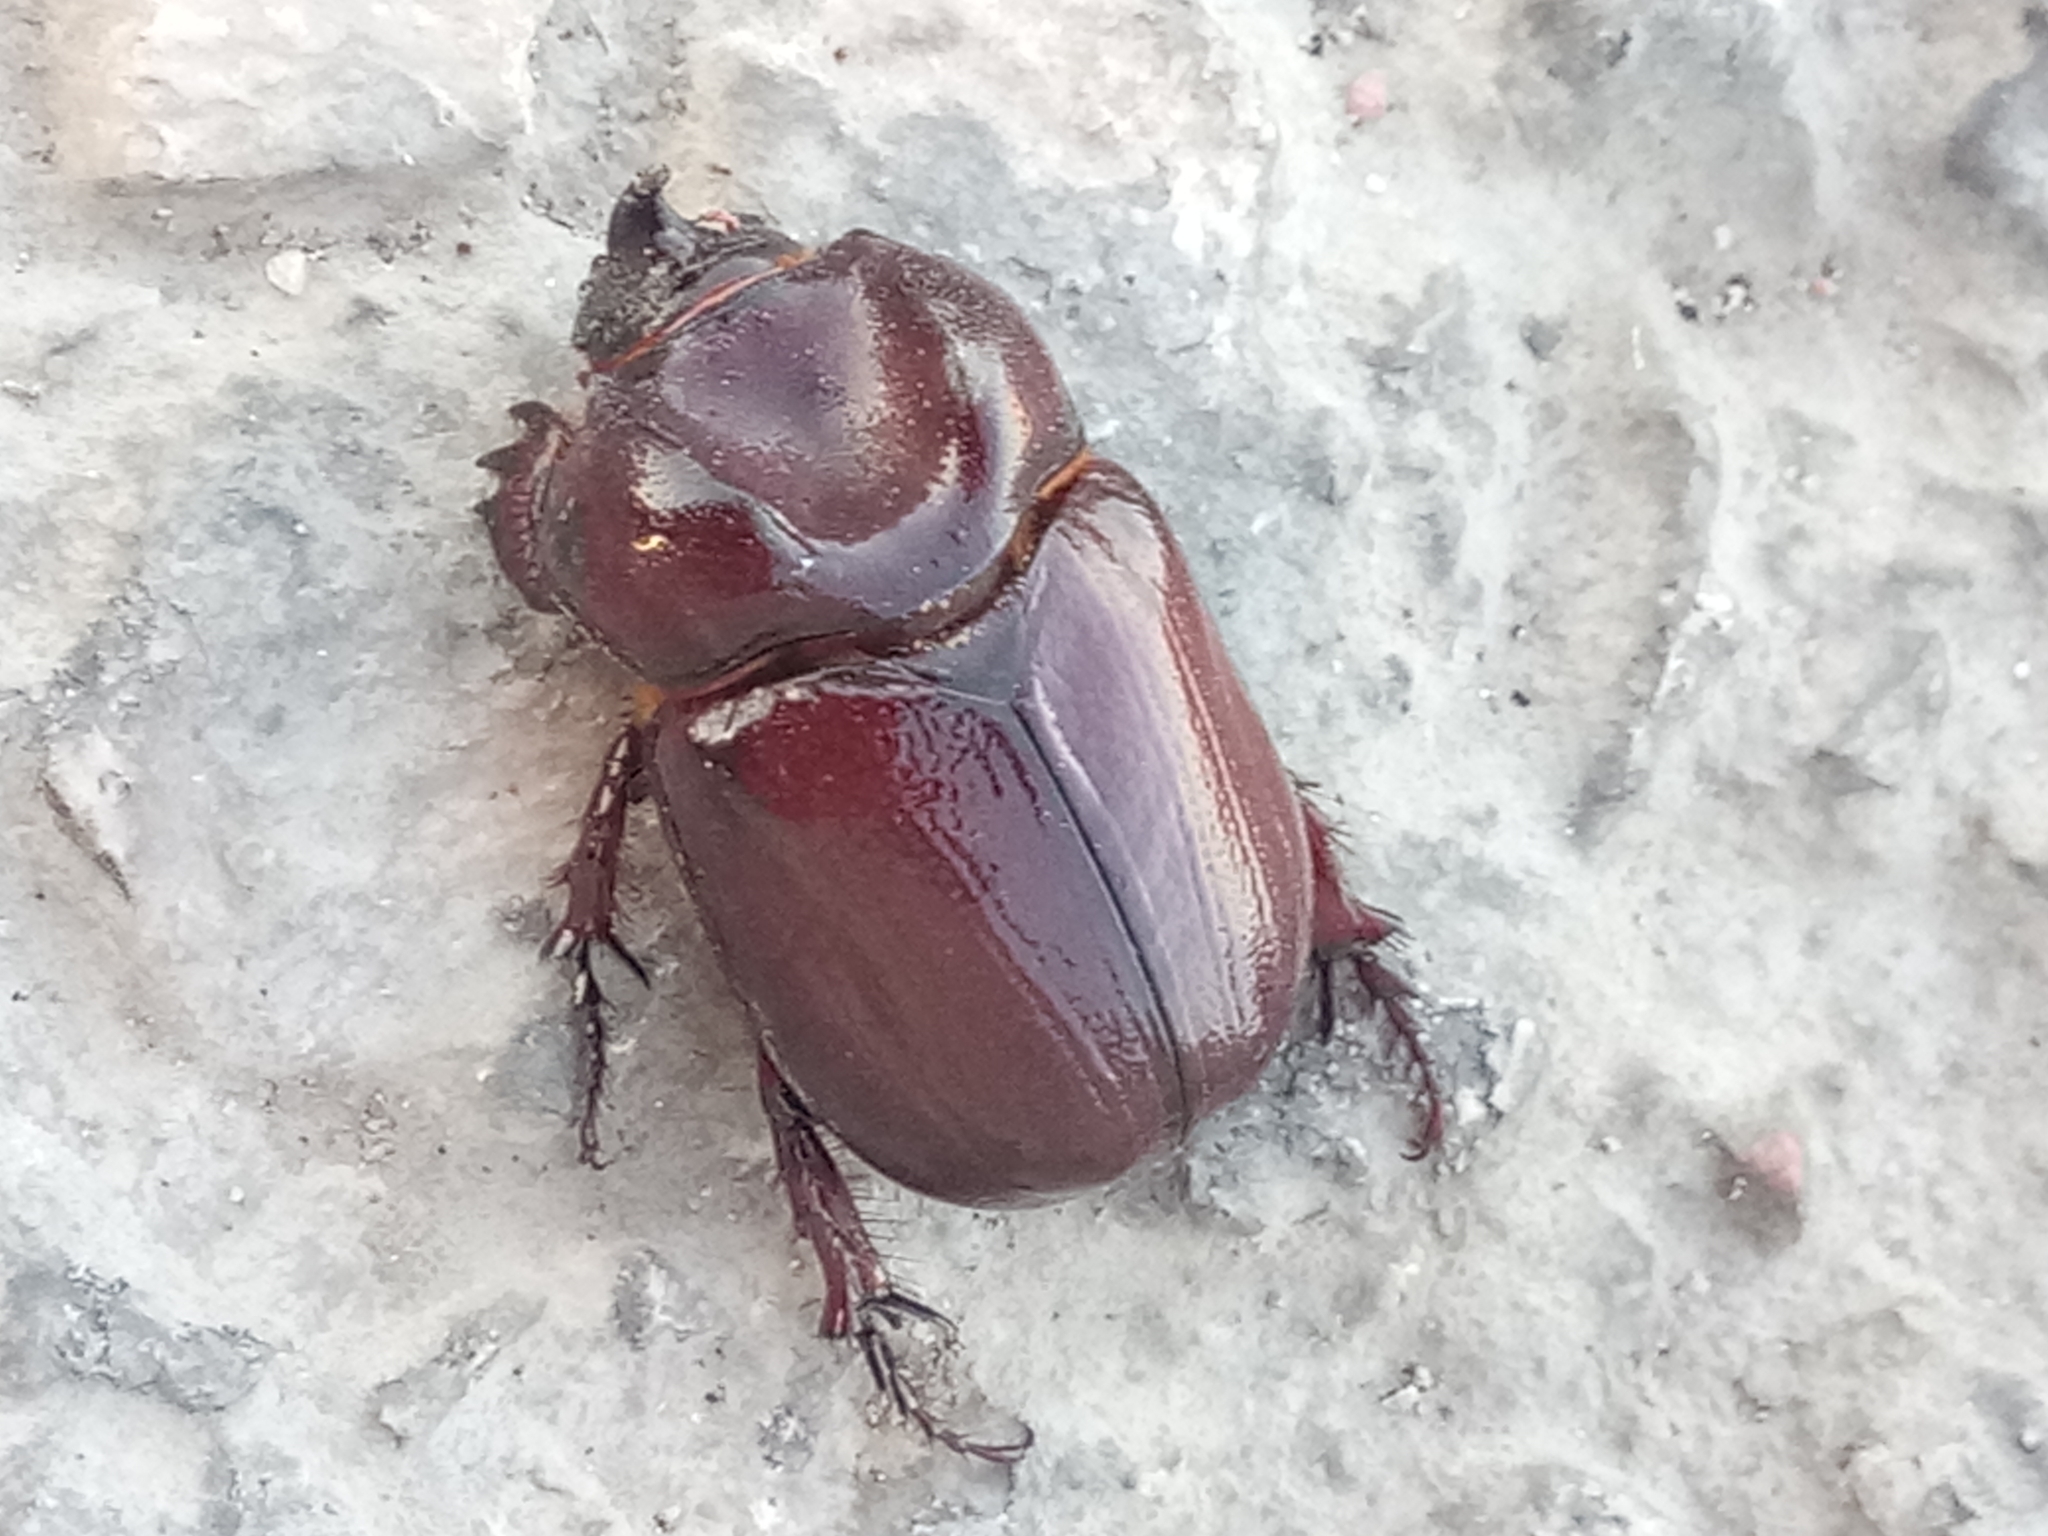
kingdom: Animalia
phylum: Arthropoda
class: Insecta
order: Coleoptera
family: Scarabaeidae
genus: Phyllognathus
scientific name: Phyllognathus excavatus
